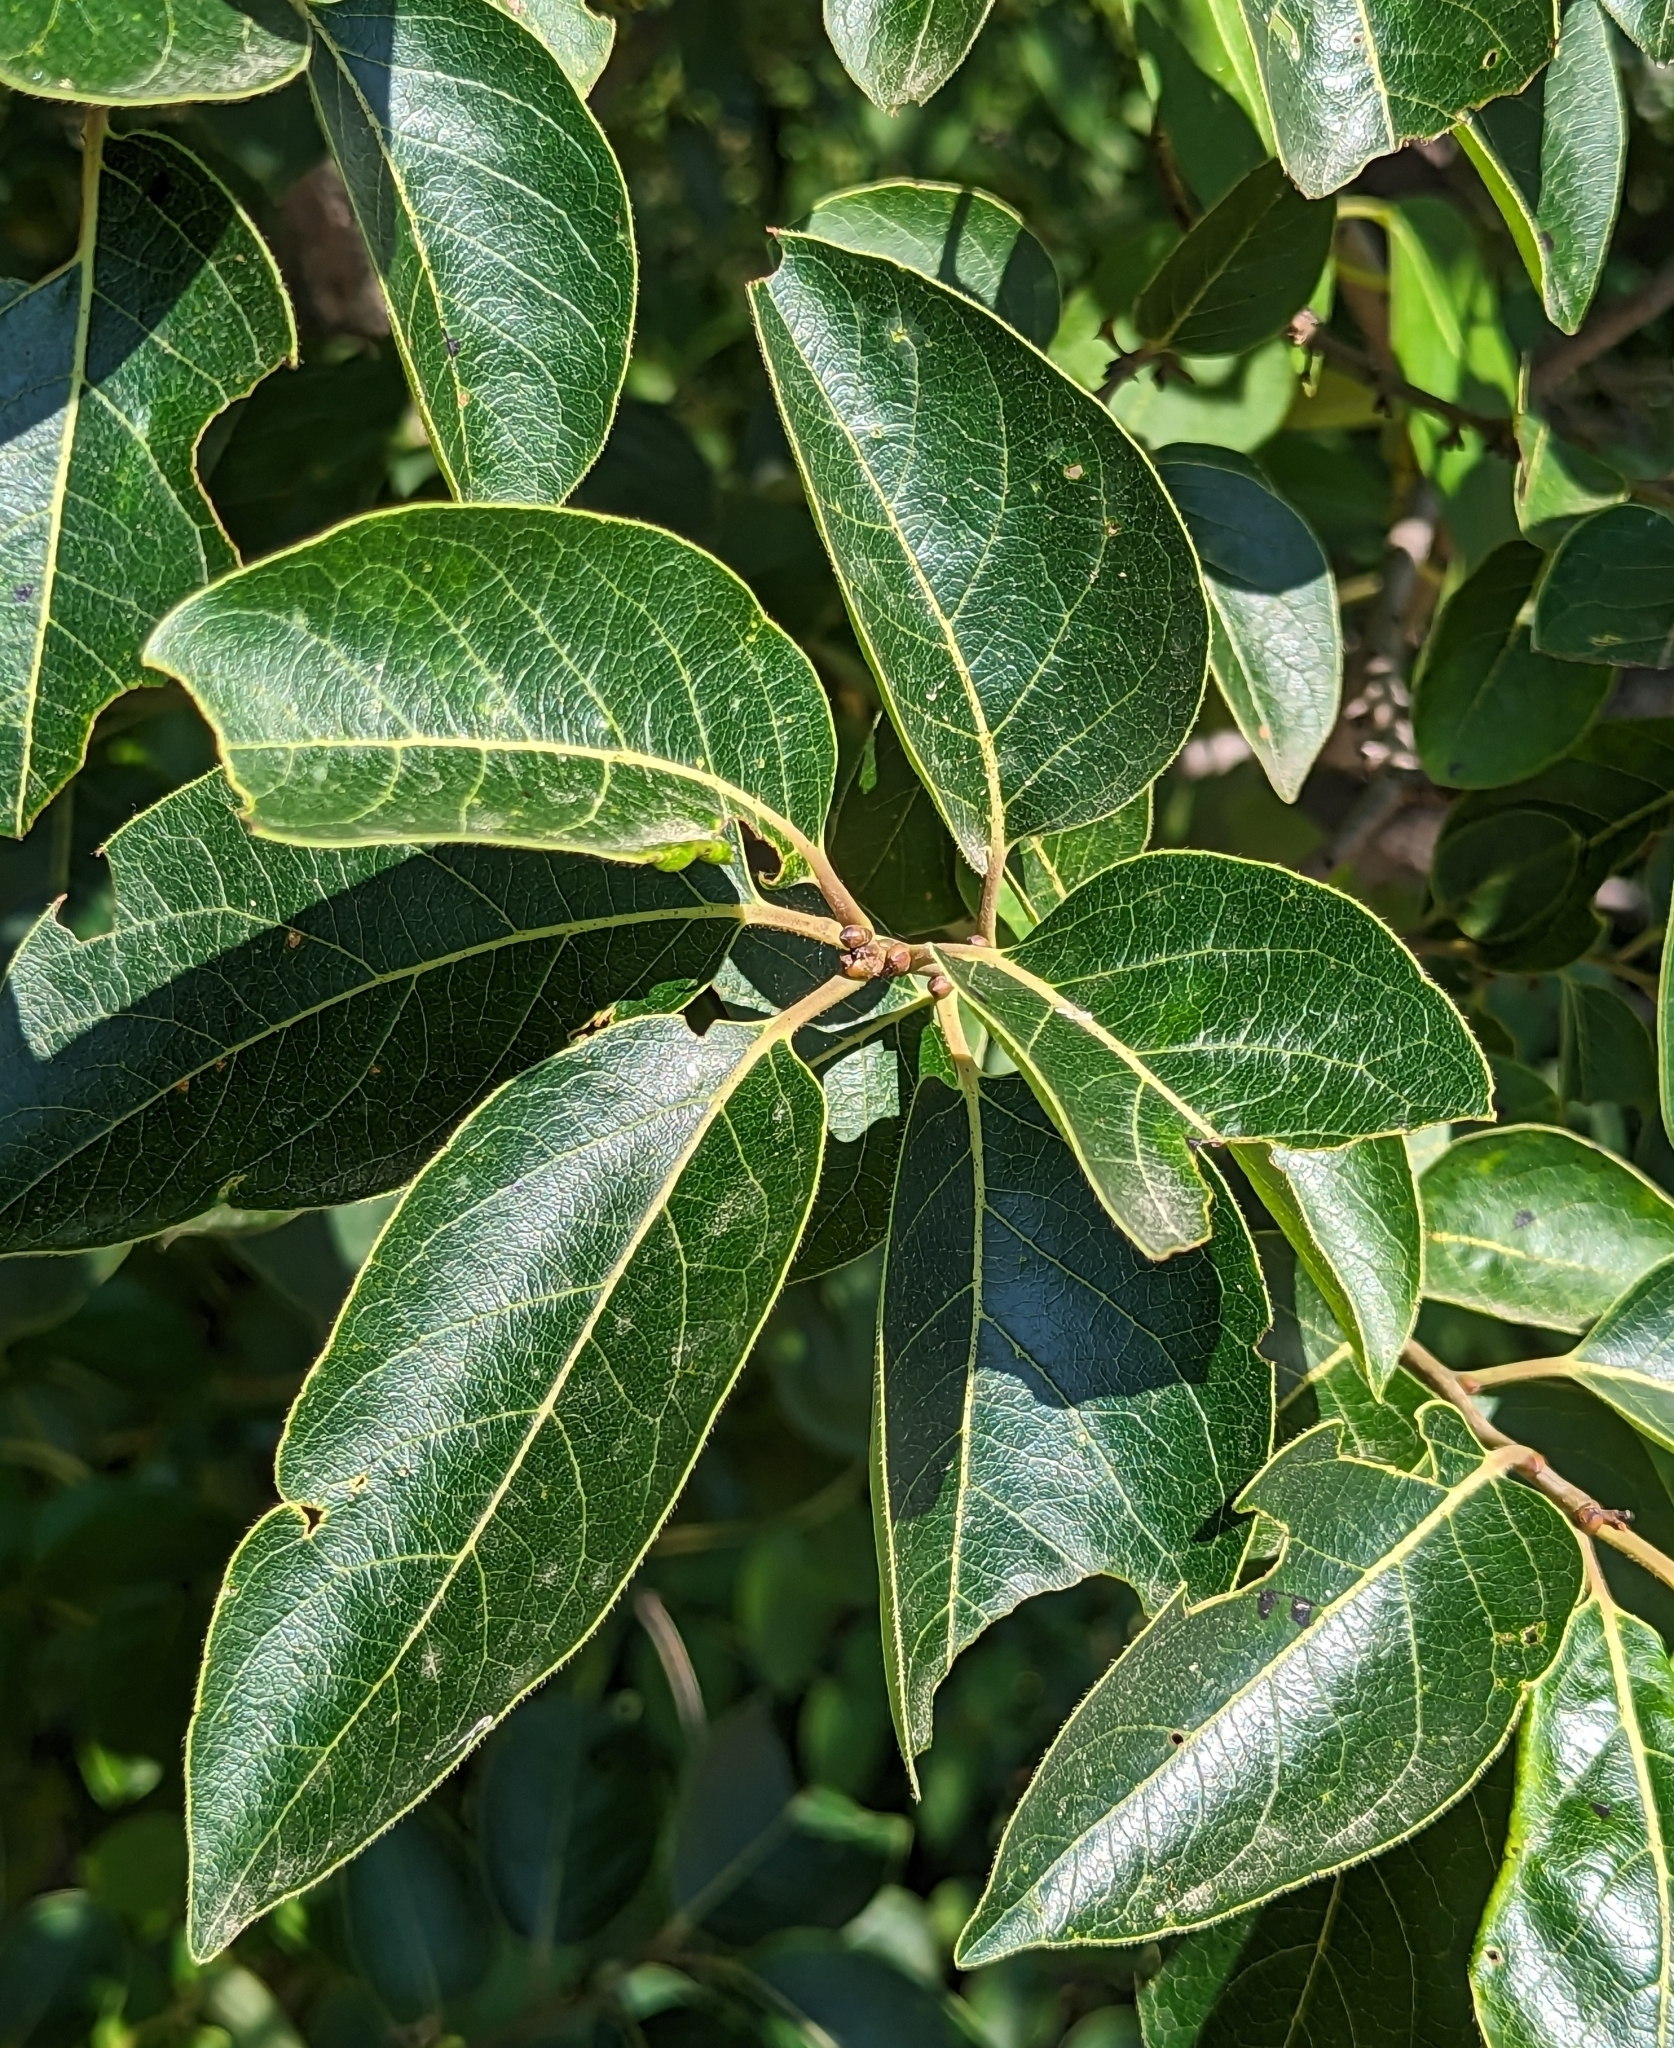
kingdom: Plantae
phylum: Tracheophyta
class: Magnoliopsida
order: Ericales
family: Ebenaceae
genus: Diospyros
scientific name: Diospyros virginiana
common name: Persimmon
